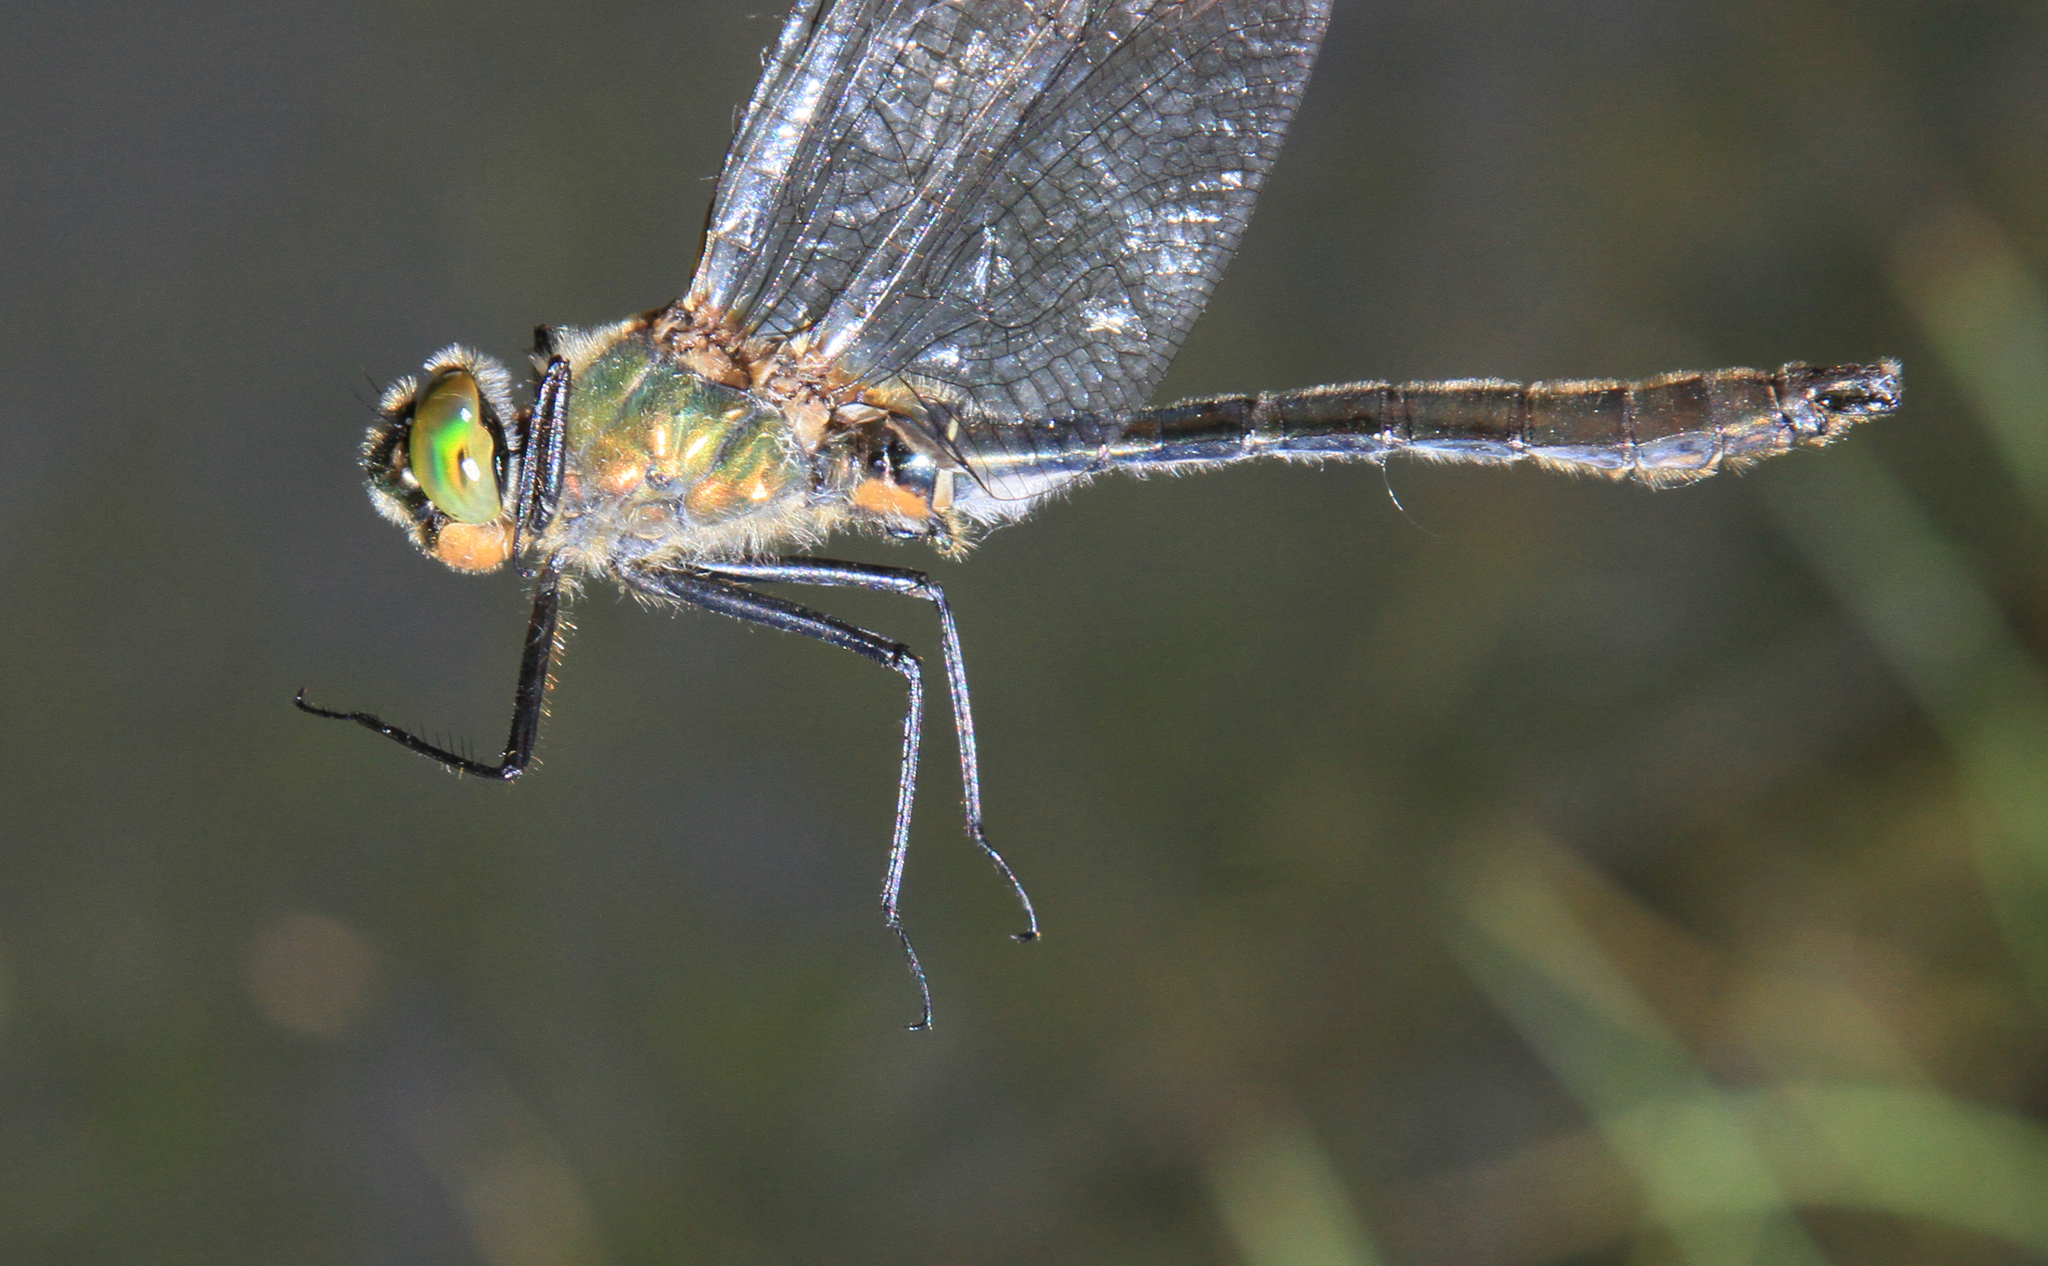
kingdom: Animalia
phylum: Arthropoda
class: Insecta
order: Odonata
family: Corduliidae
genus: Cordulia
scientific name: Cordulia aenea
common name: Downy emerald
